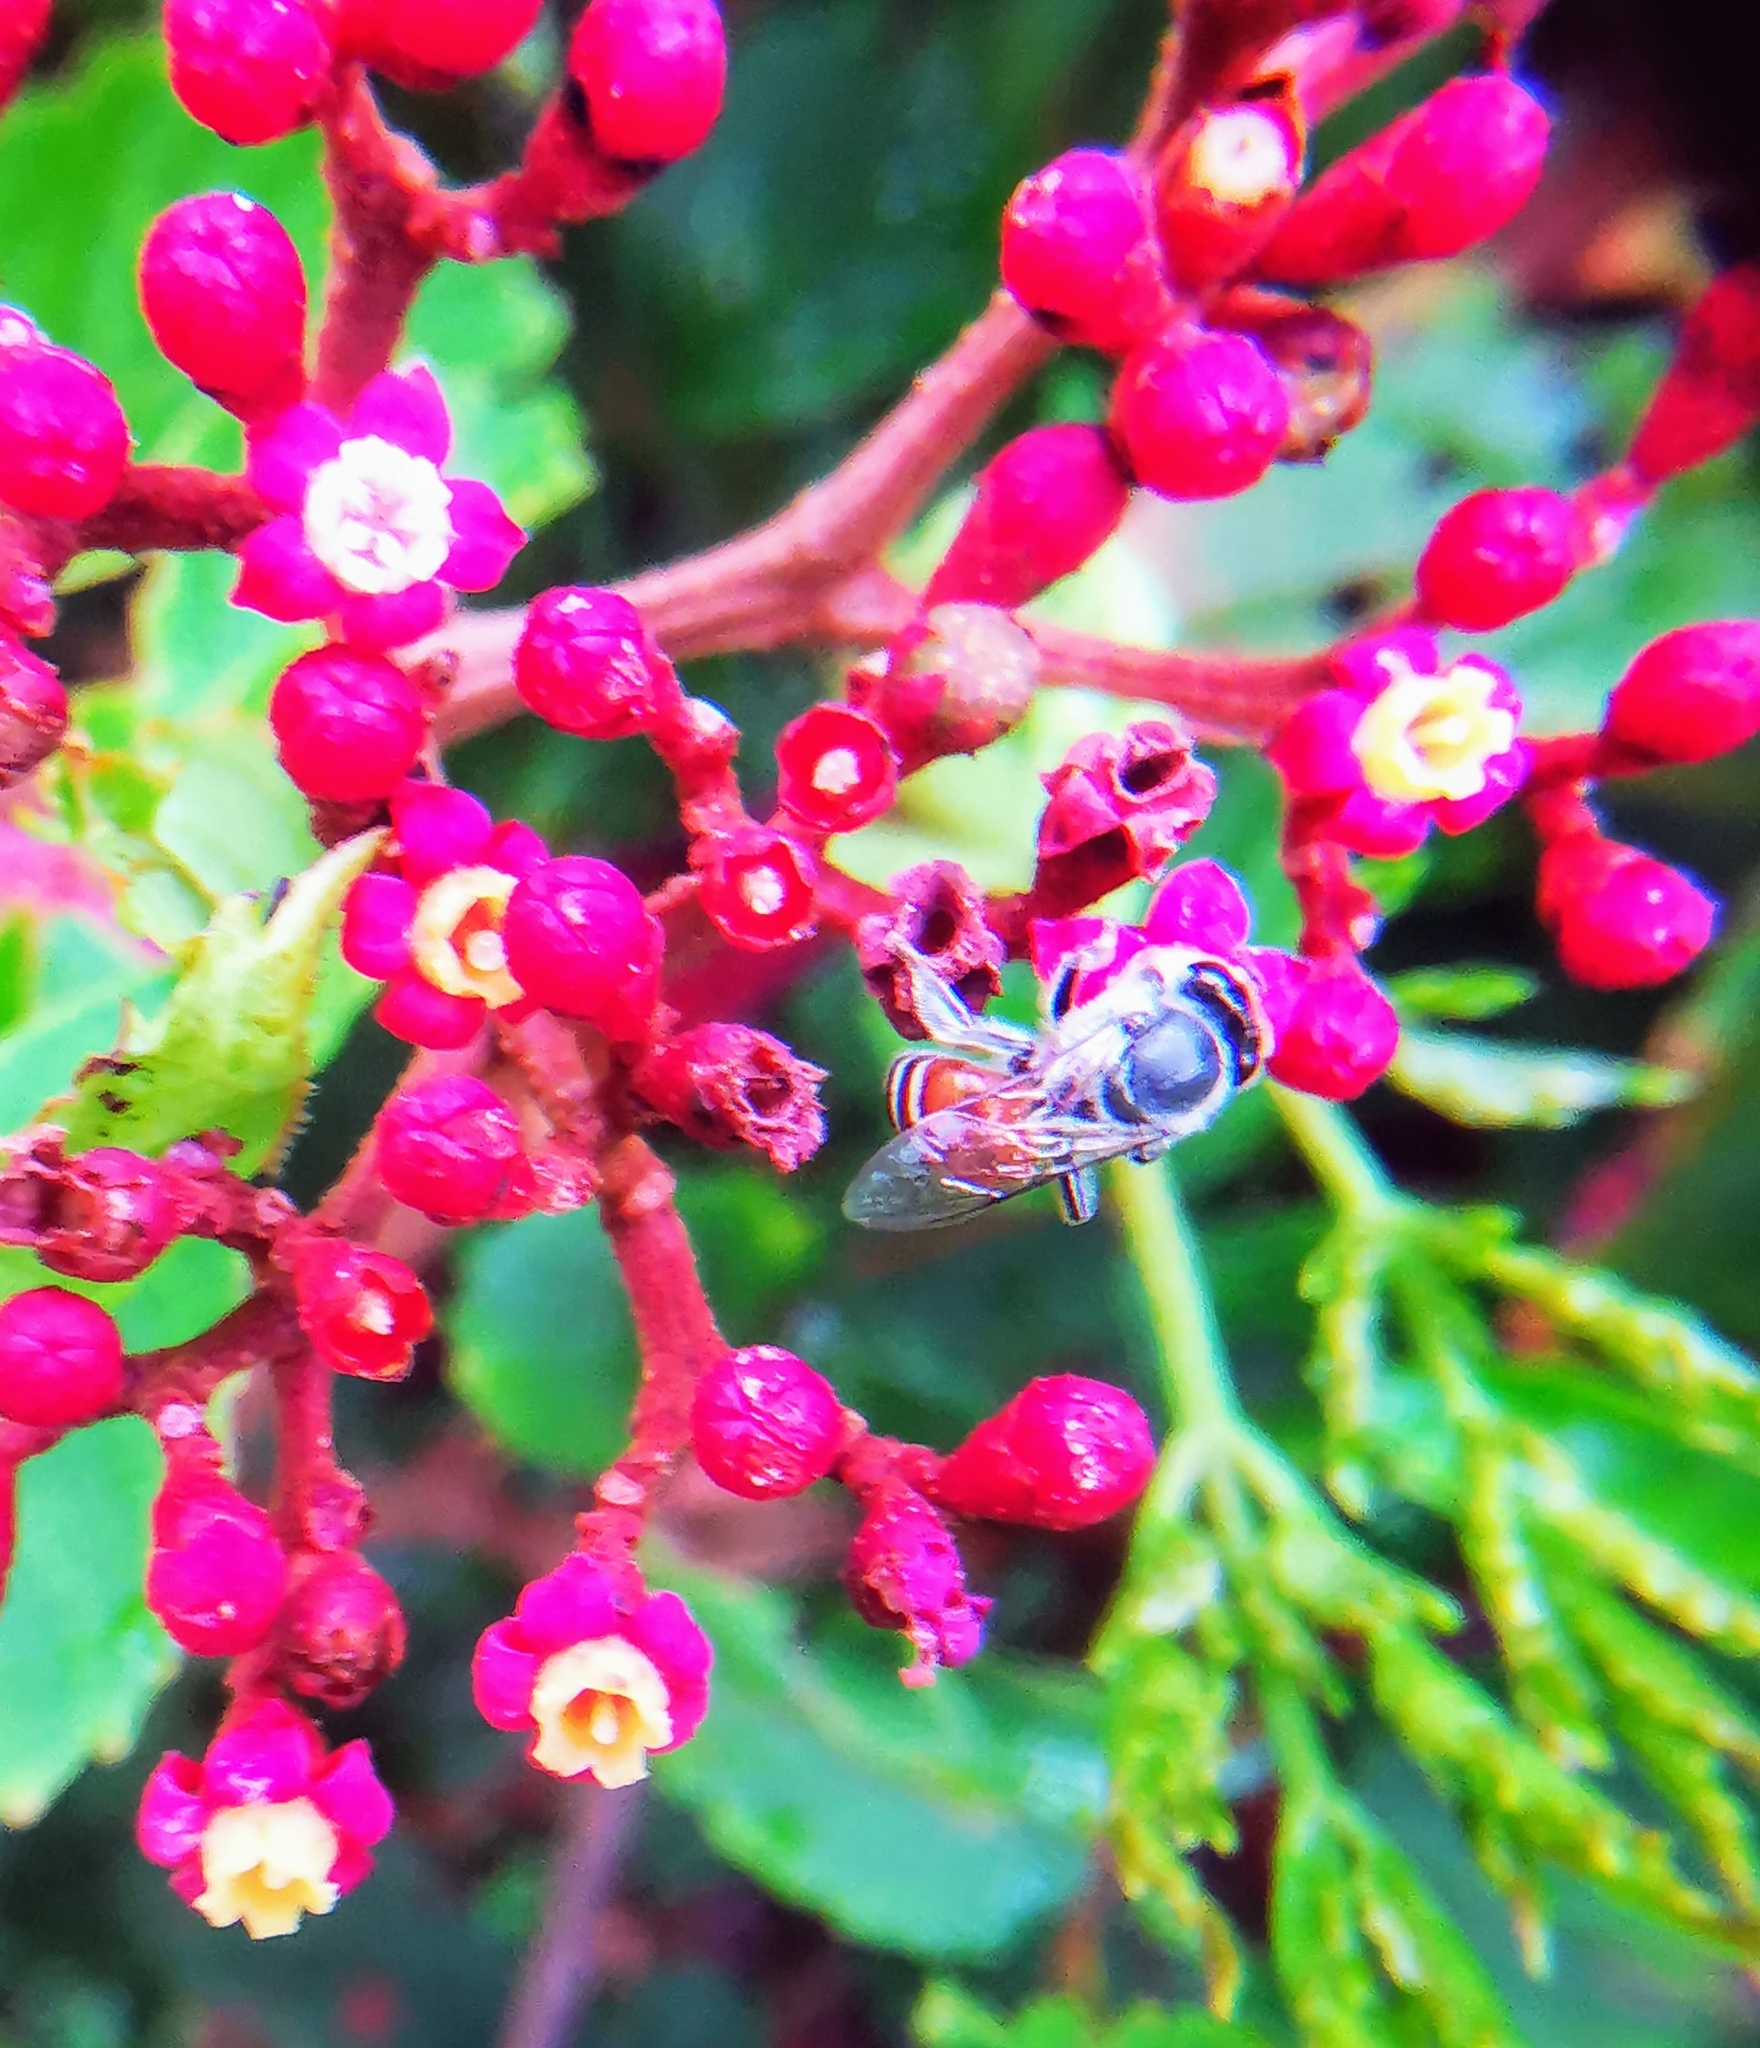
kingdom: Animalia
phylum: Arthropoda
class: Insecta
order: Hymenoptera
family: Apidae
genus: Apis
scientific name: Apis florea
